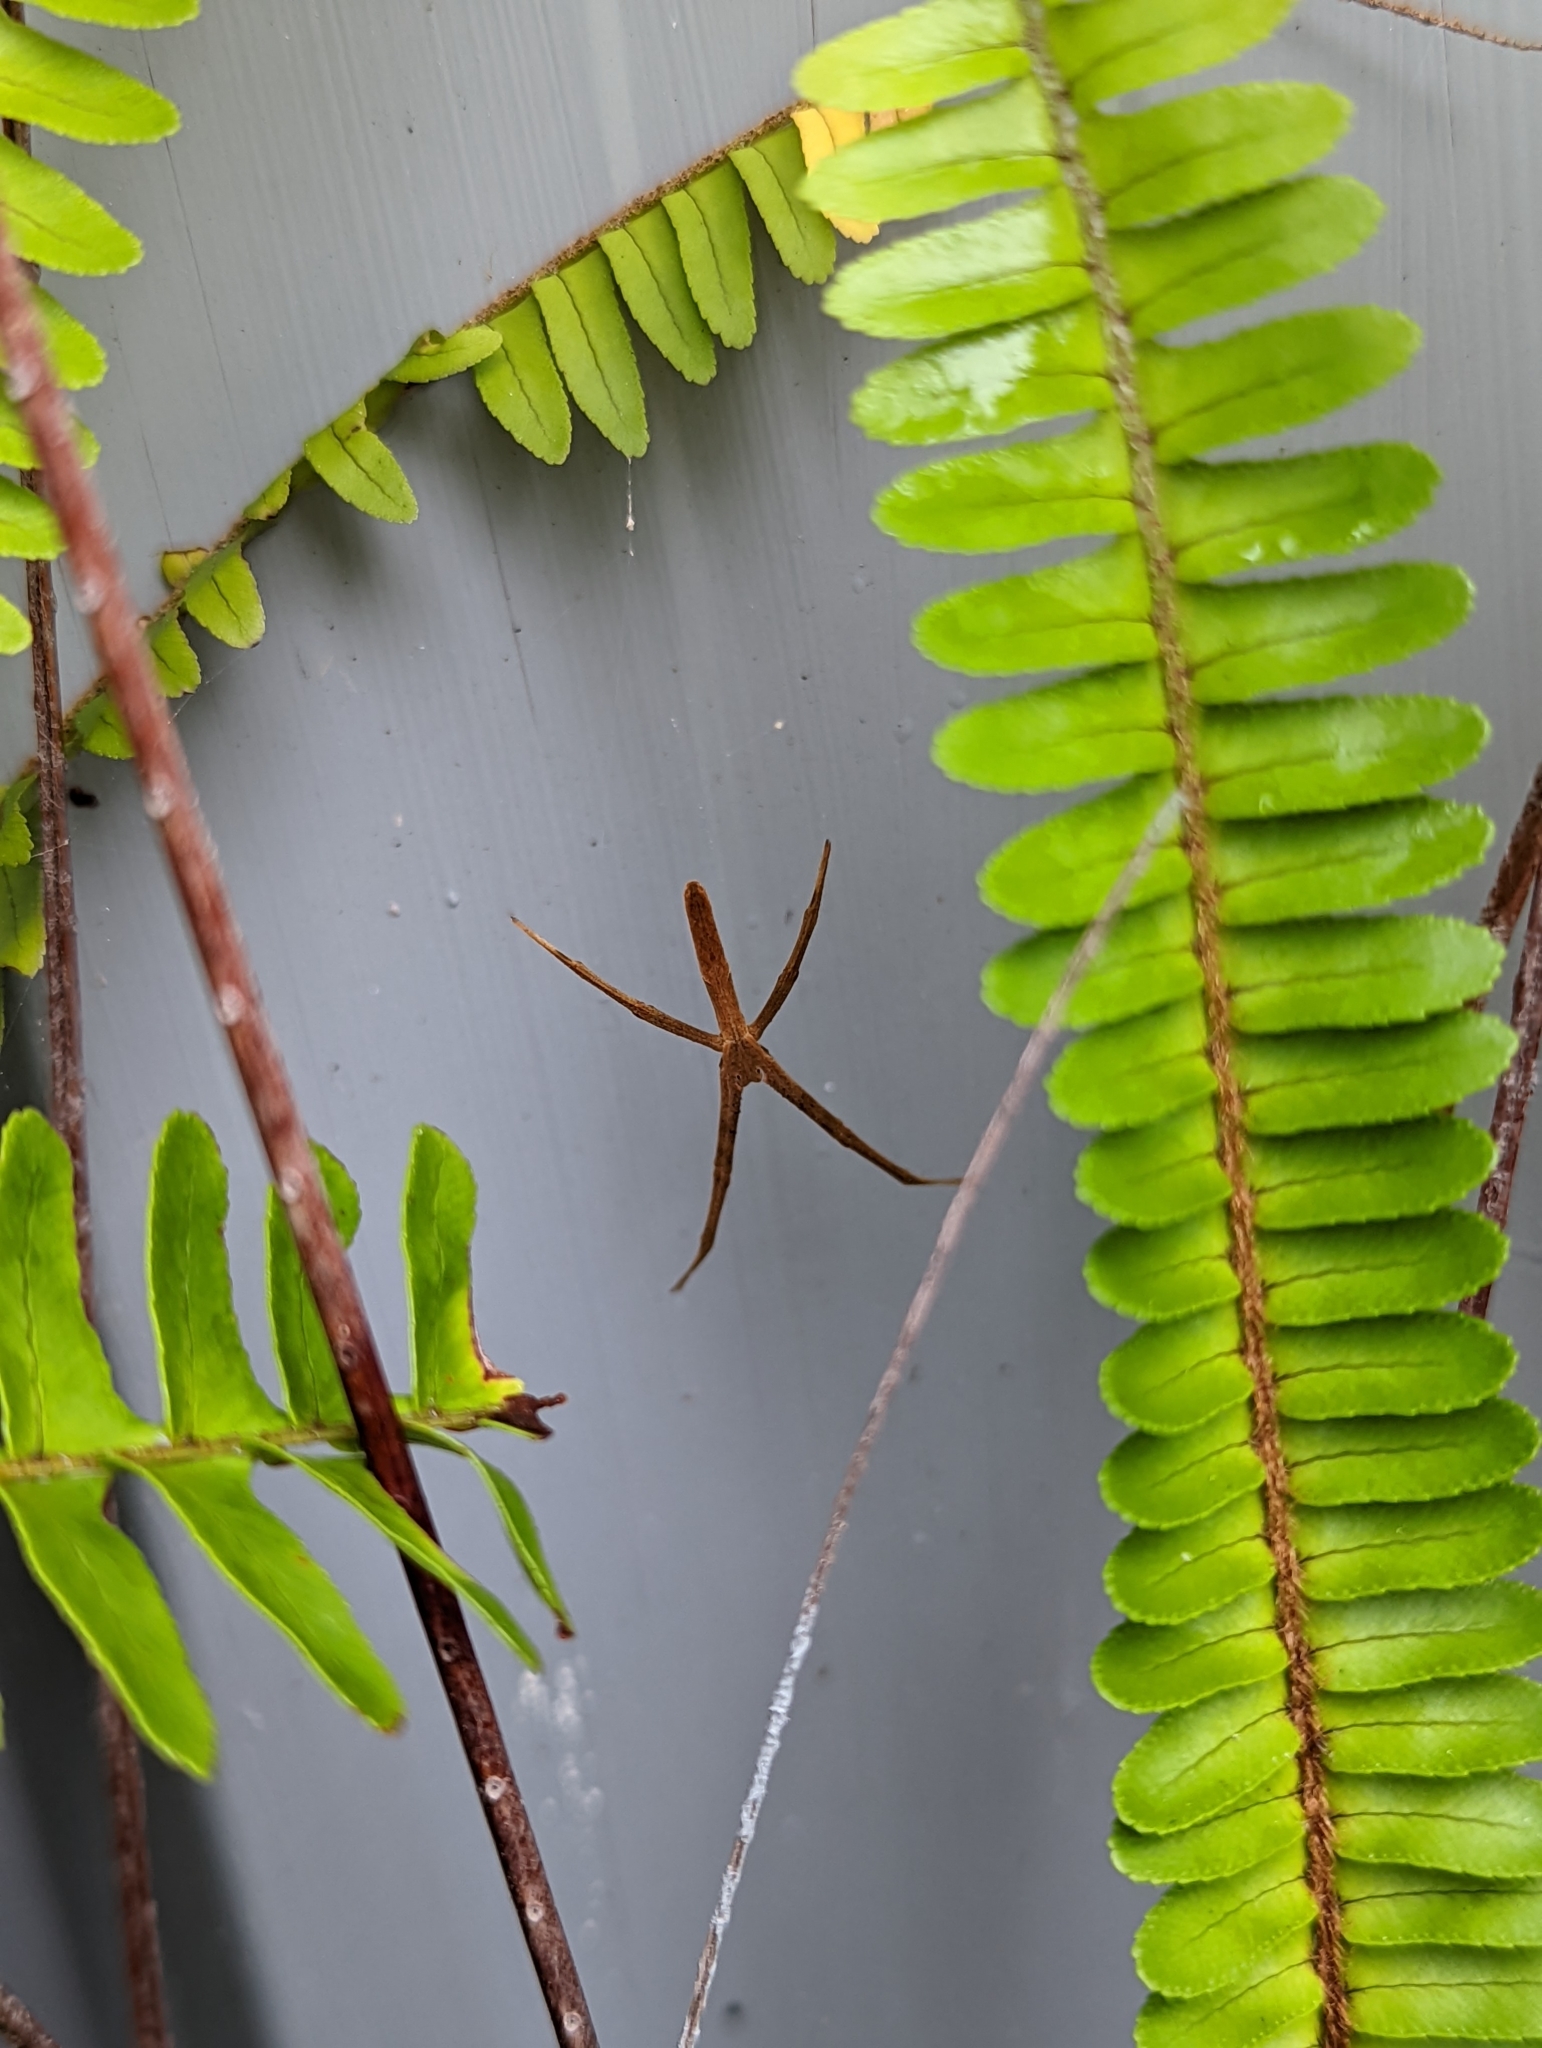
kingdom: Animalia
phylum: Arthropoda
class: Arachnida
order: Araneae
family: Deinopidae
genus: Deinopis
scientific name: Deinopis subrufa
